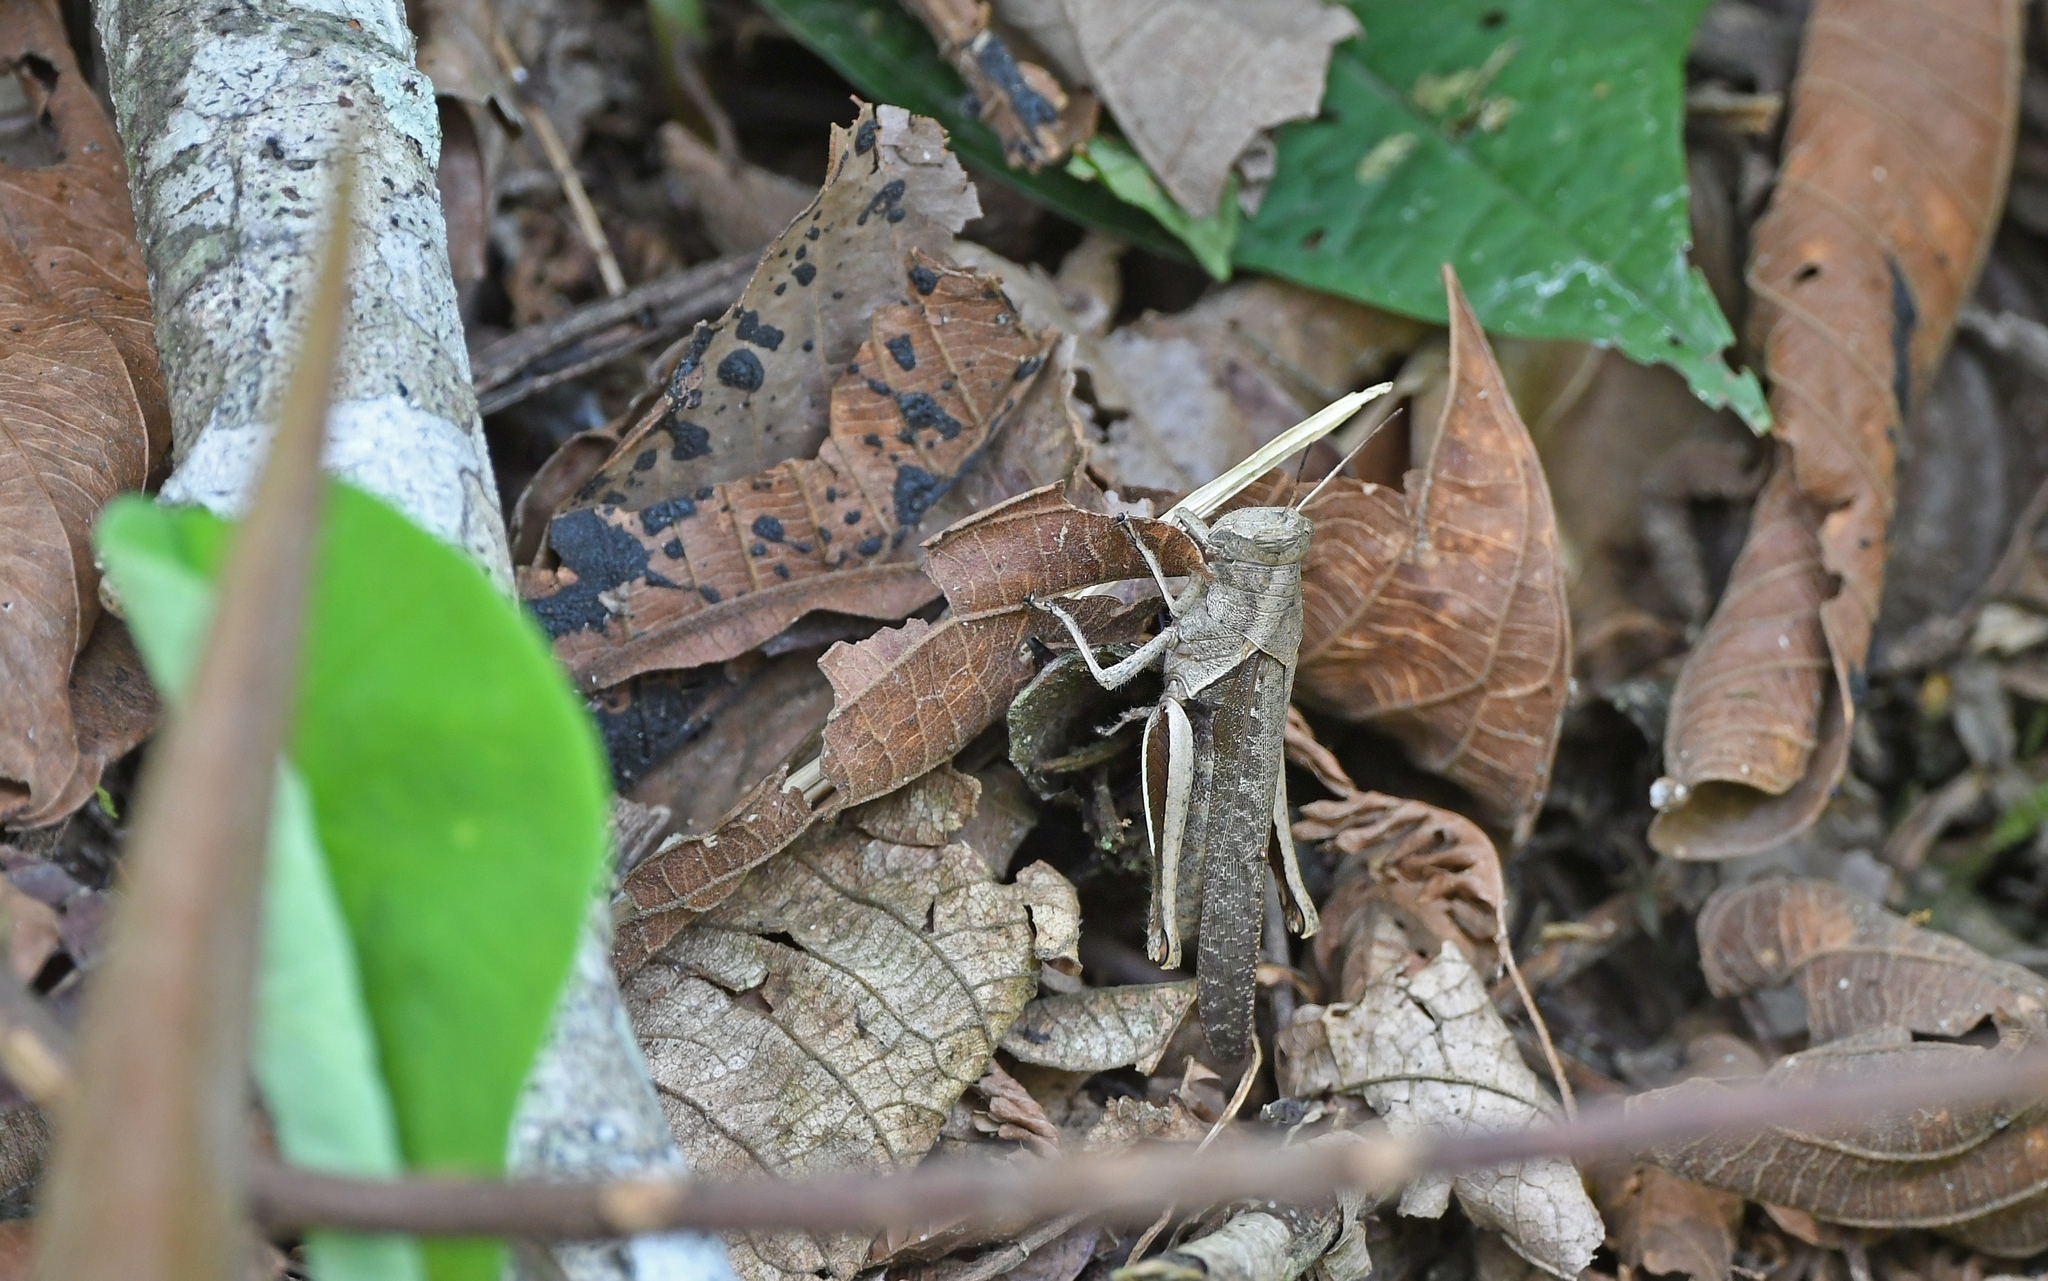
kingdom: Animalia
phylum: Arthropoda
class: Insecta
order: Orthoptera
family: Acrididae
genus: Abracris
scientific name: Abracris flavolineata
